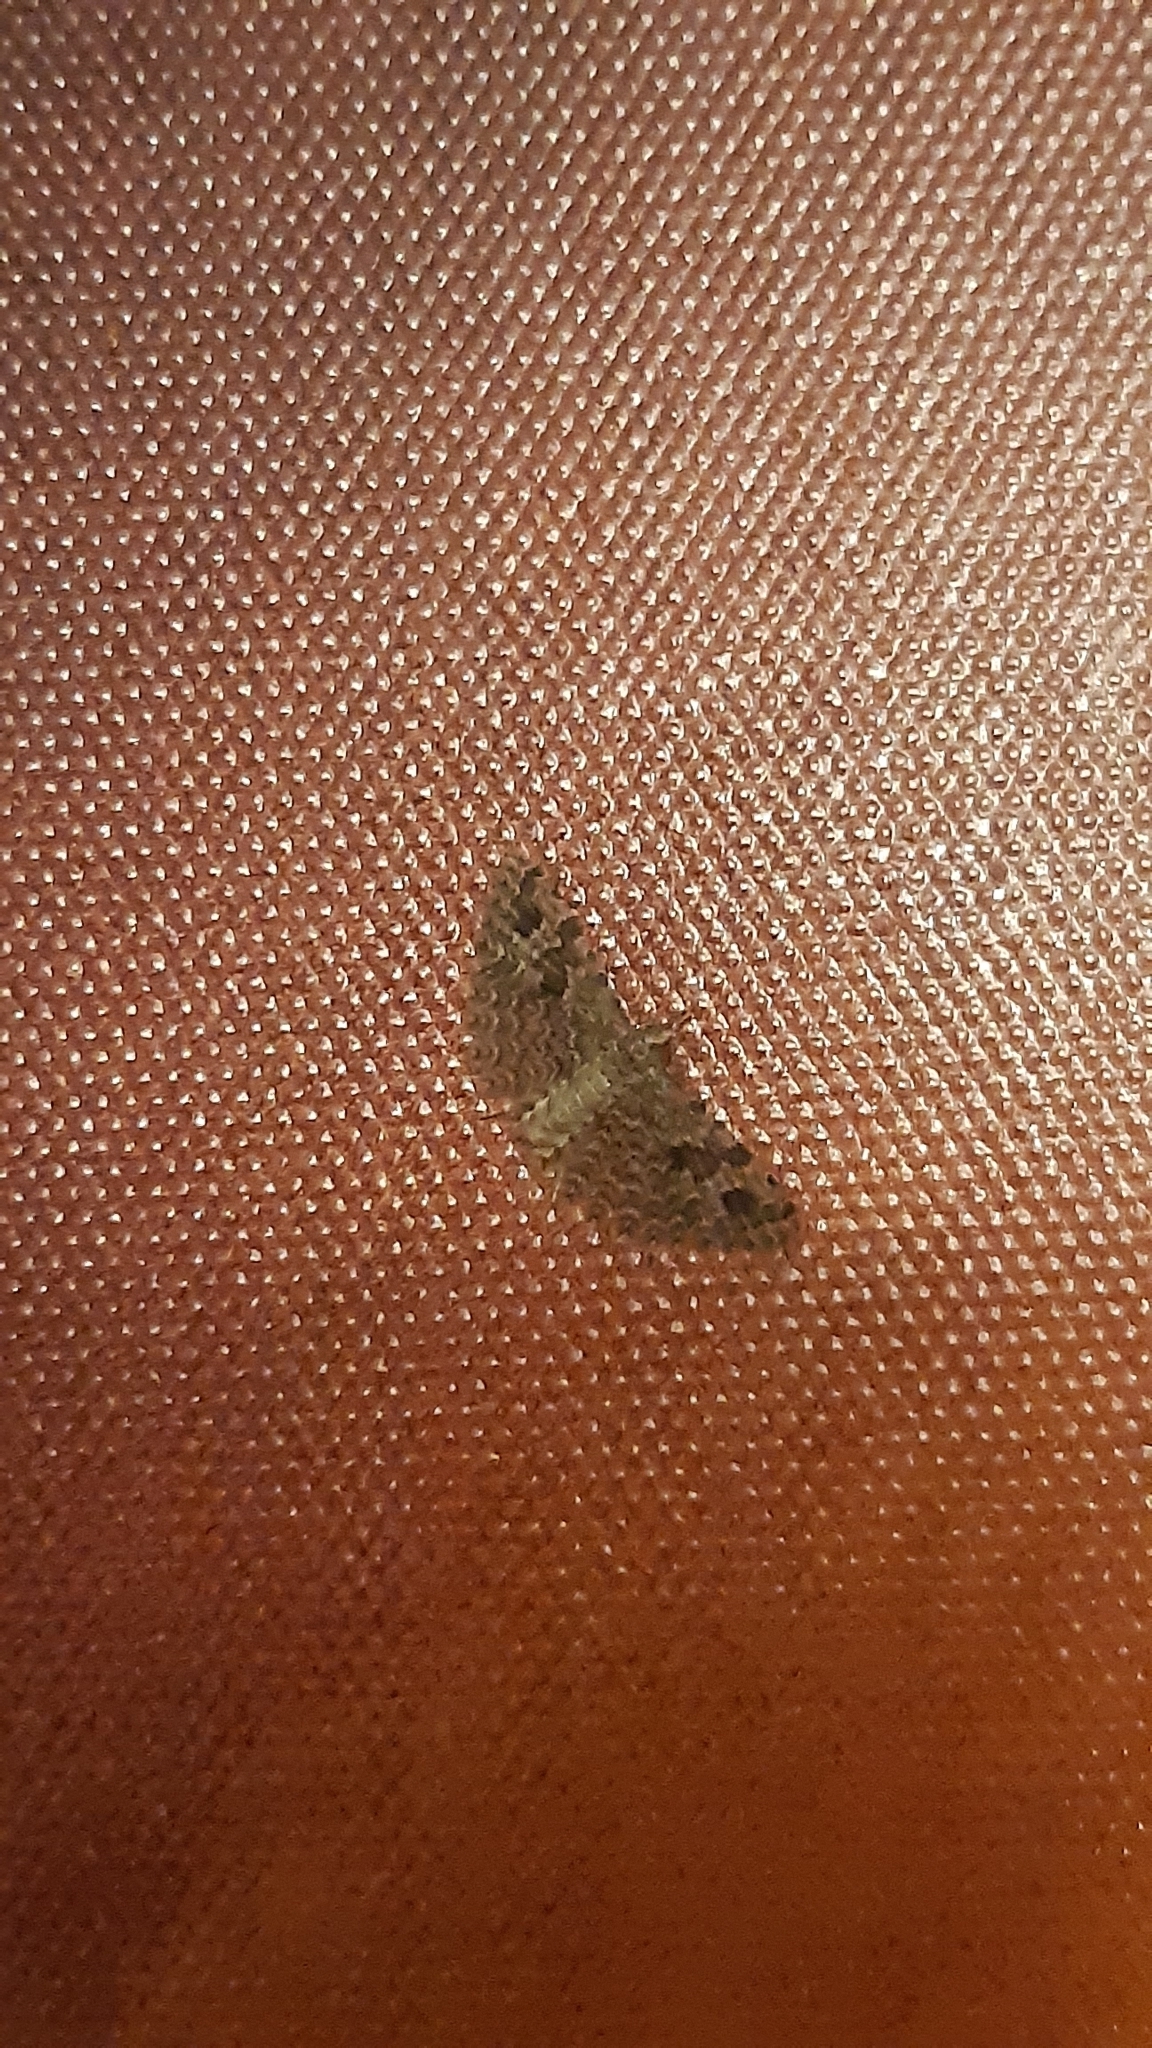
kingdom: Animalia
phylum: Arthropoda
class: Insecta
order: Lepidoptera
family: Alucitidae
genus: Alucita
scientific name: Alucita hexadactyla
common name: Twenty-plume moth
